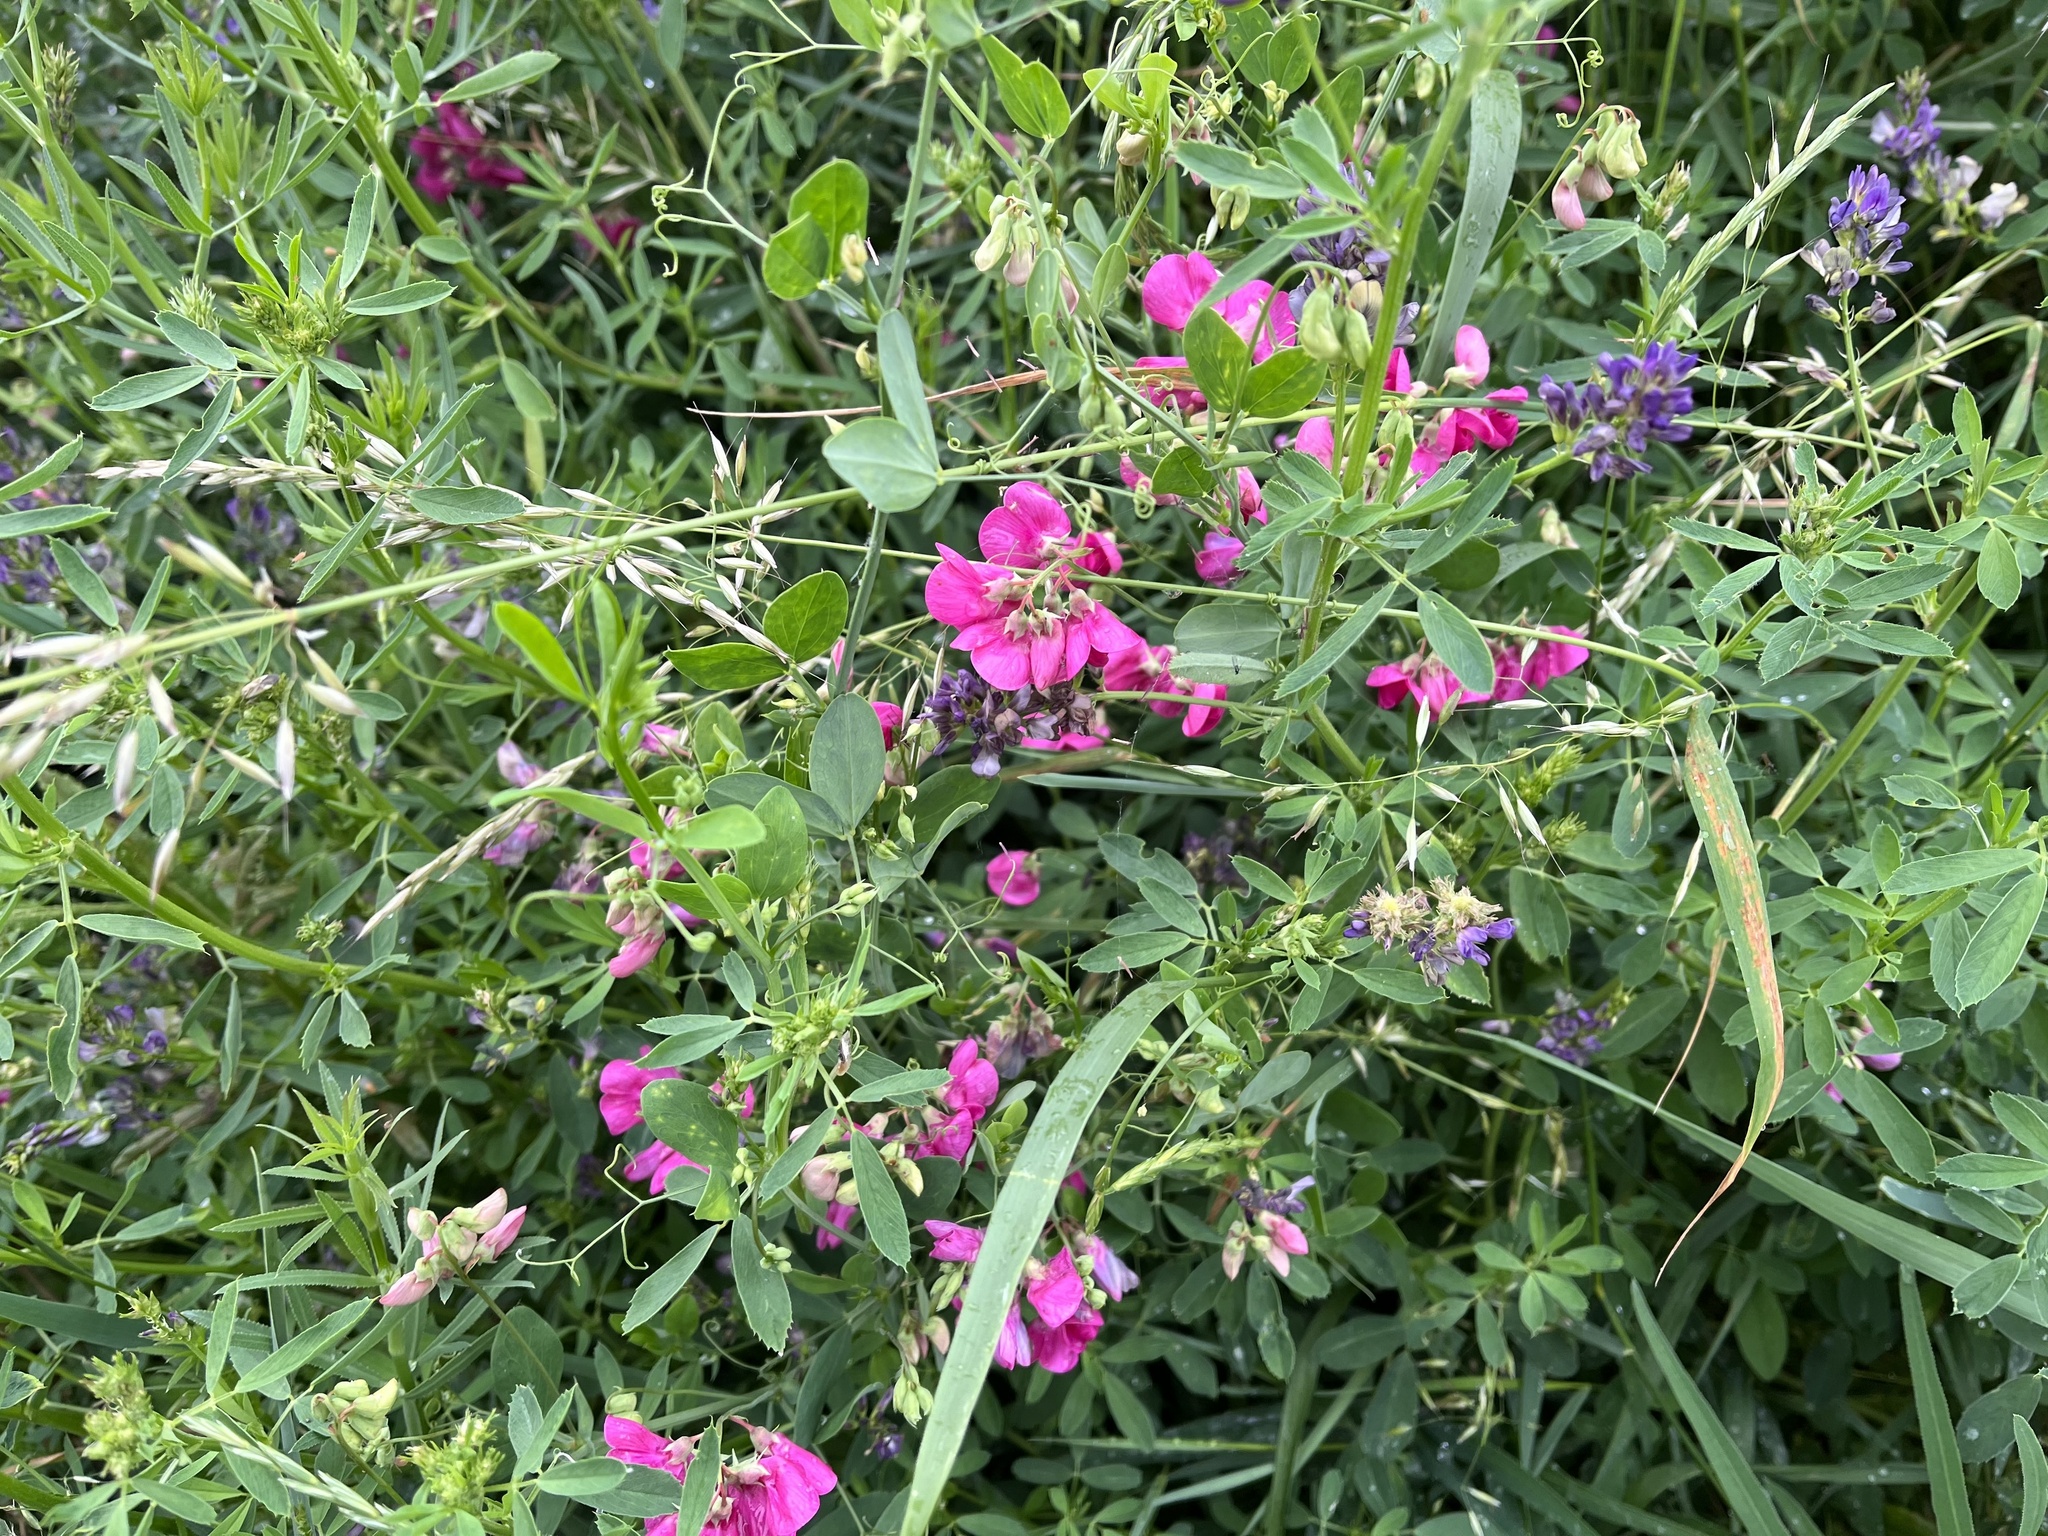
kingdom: Plantae
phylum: Tracheophyta
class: Magnoliopsida
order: Fabales
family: Fabaceae
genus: Lathyrus
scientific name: Lathyrus tuberosus
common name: Tuberous pea
